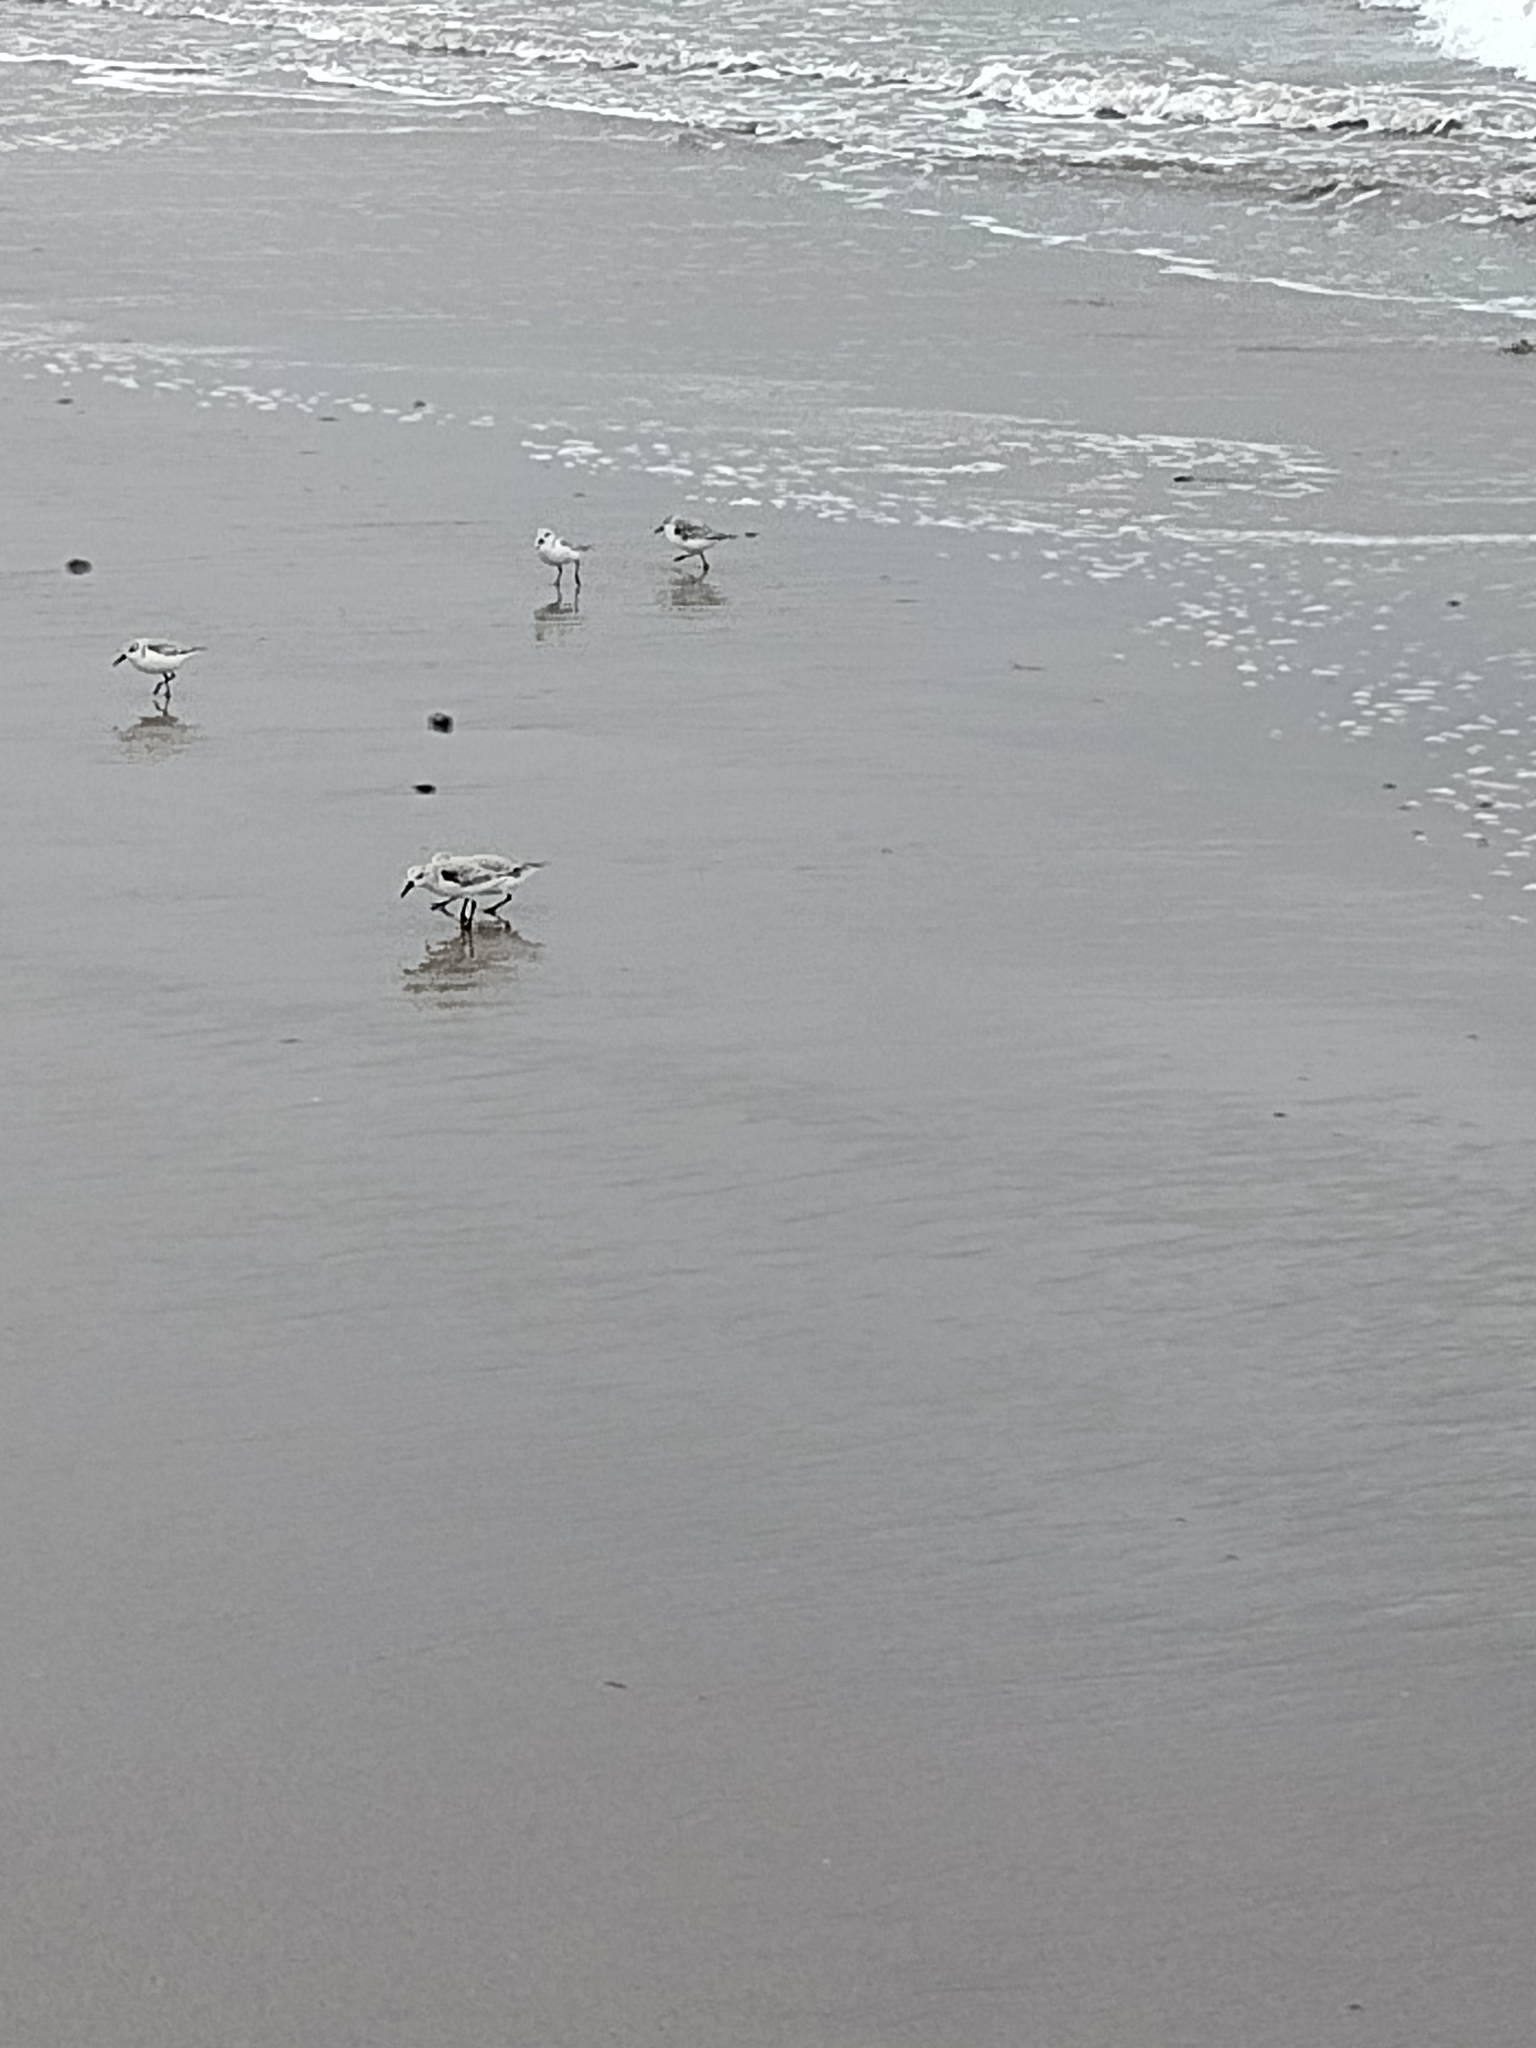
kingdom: Animalia
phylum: Chordata
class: Aves
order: Charadriiformes
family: Scolopacidae
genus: Calidris
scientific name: Calidris alba
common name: Sanderling
